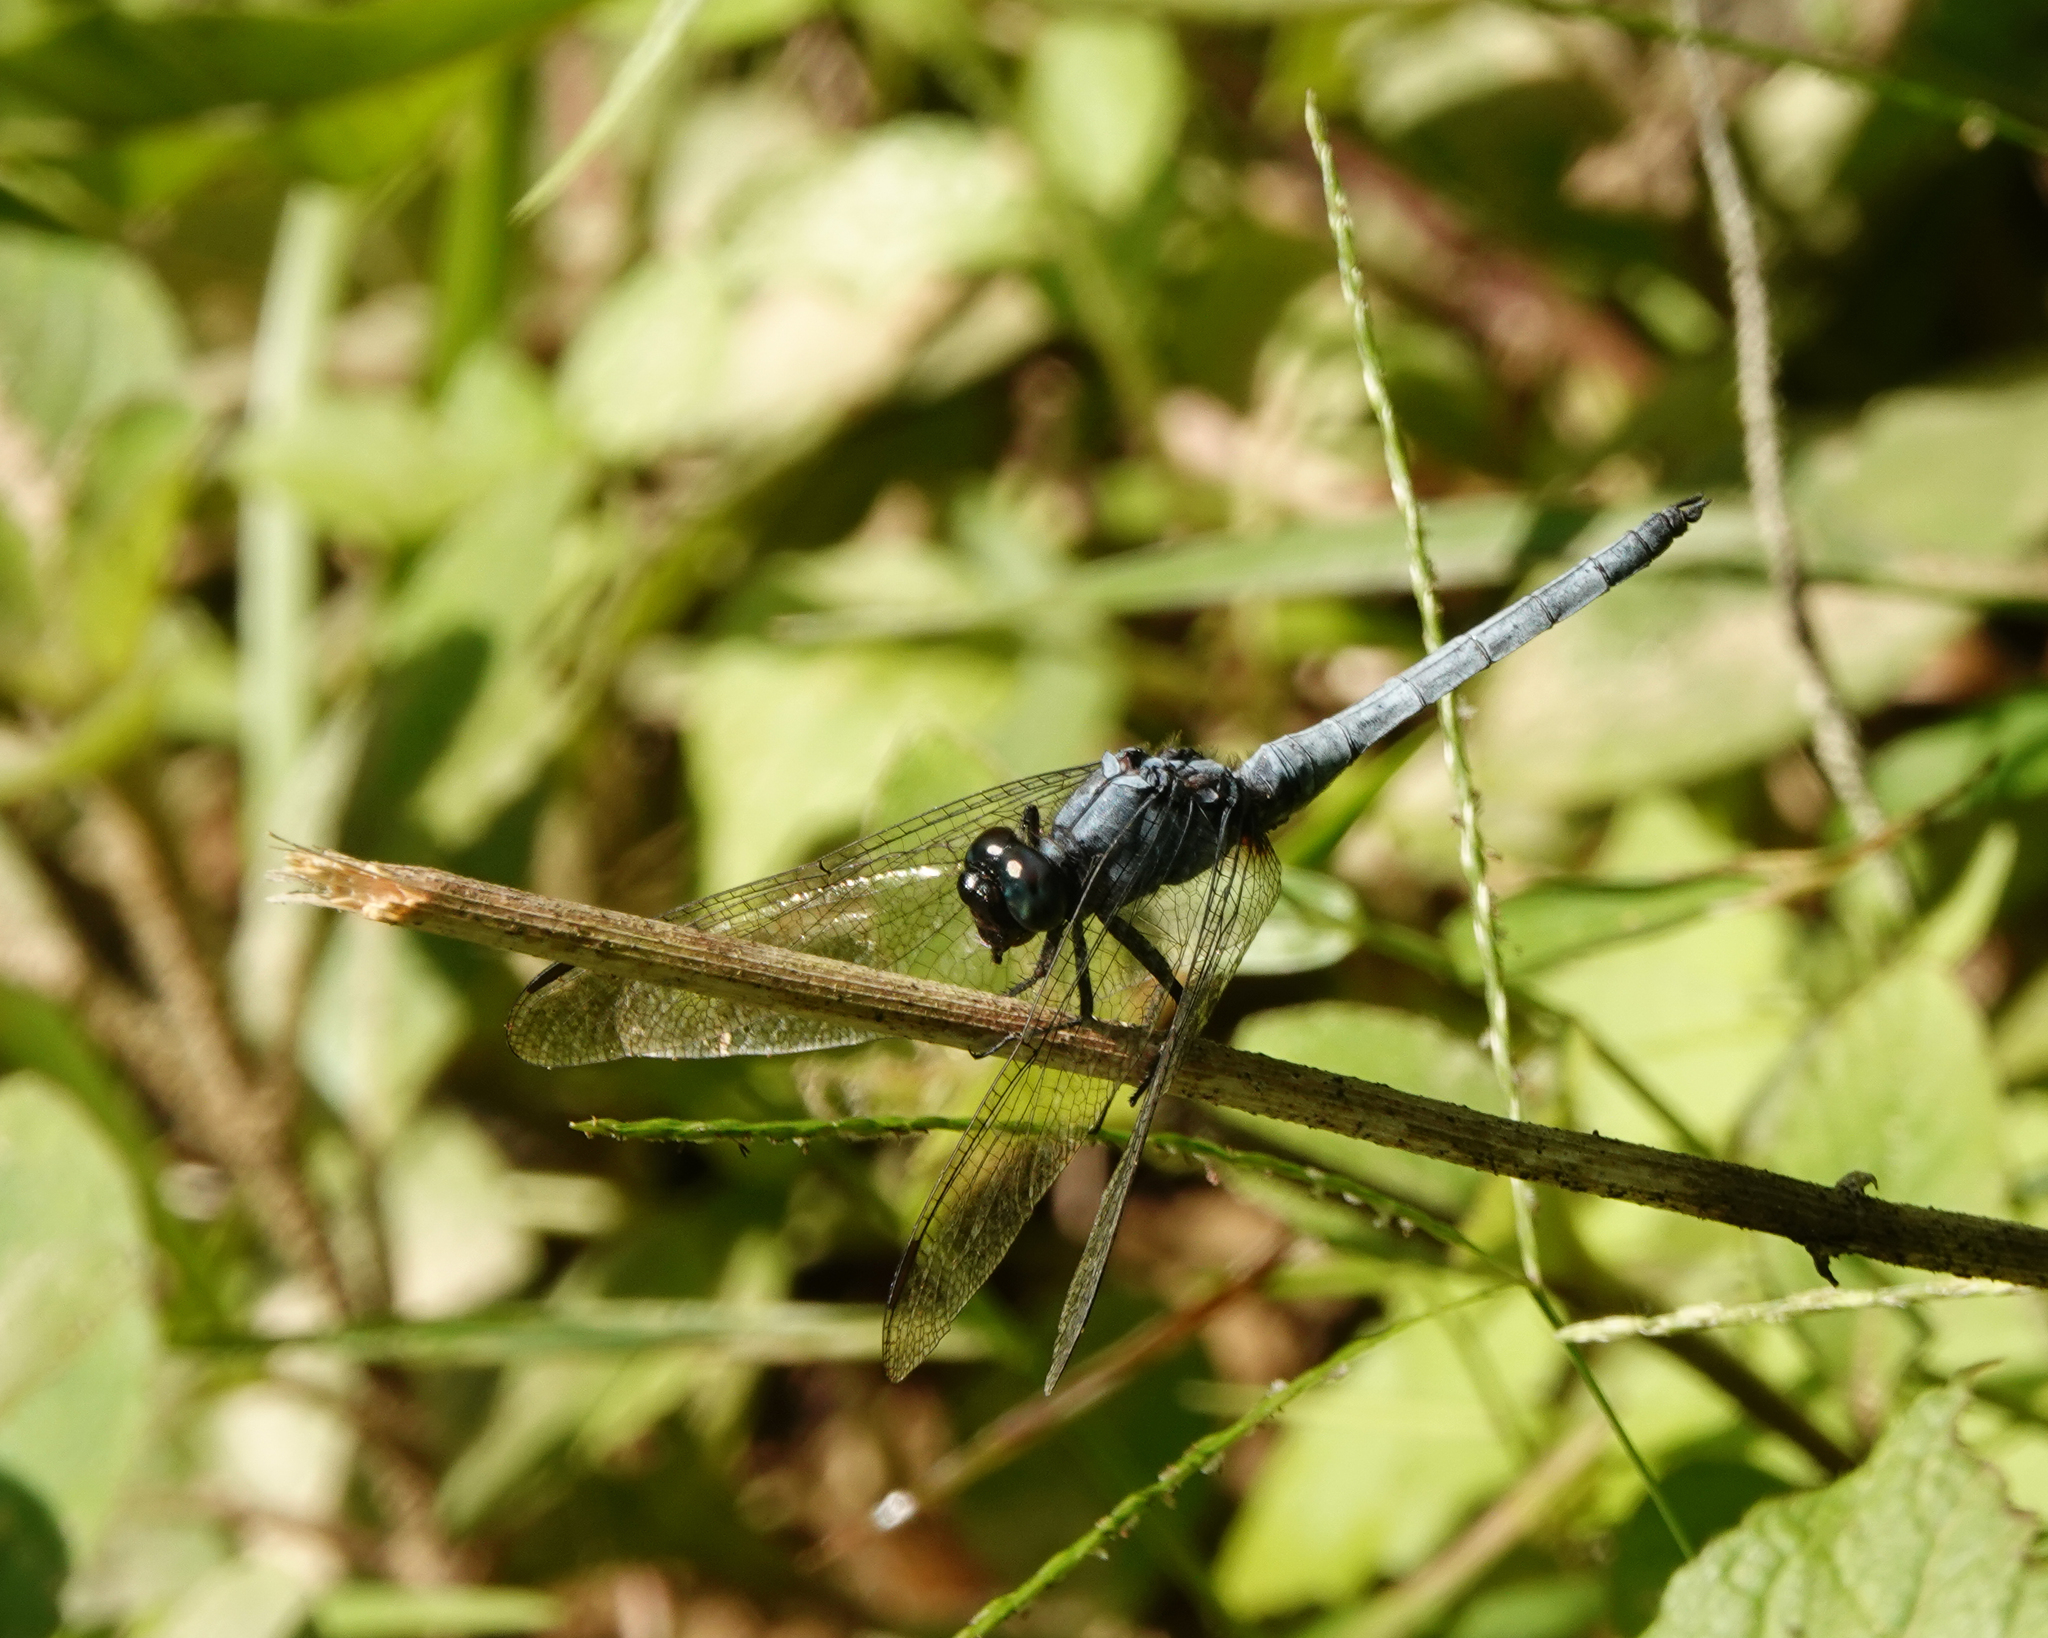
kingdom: Animalia
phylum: Arthropoda
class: Insecta
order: Odonata
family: Libellulidae
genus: Orthetrum
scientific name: Orthetrum glaucum
